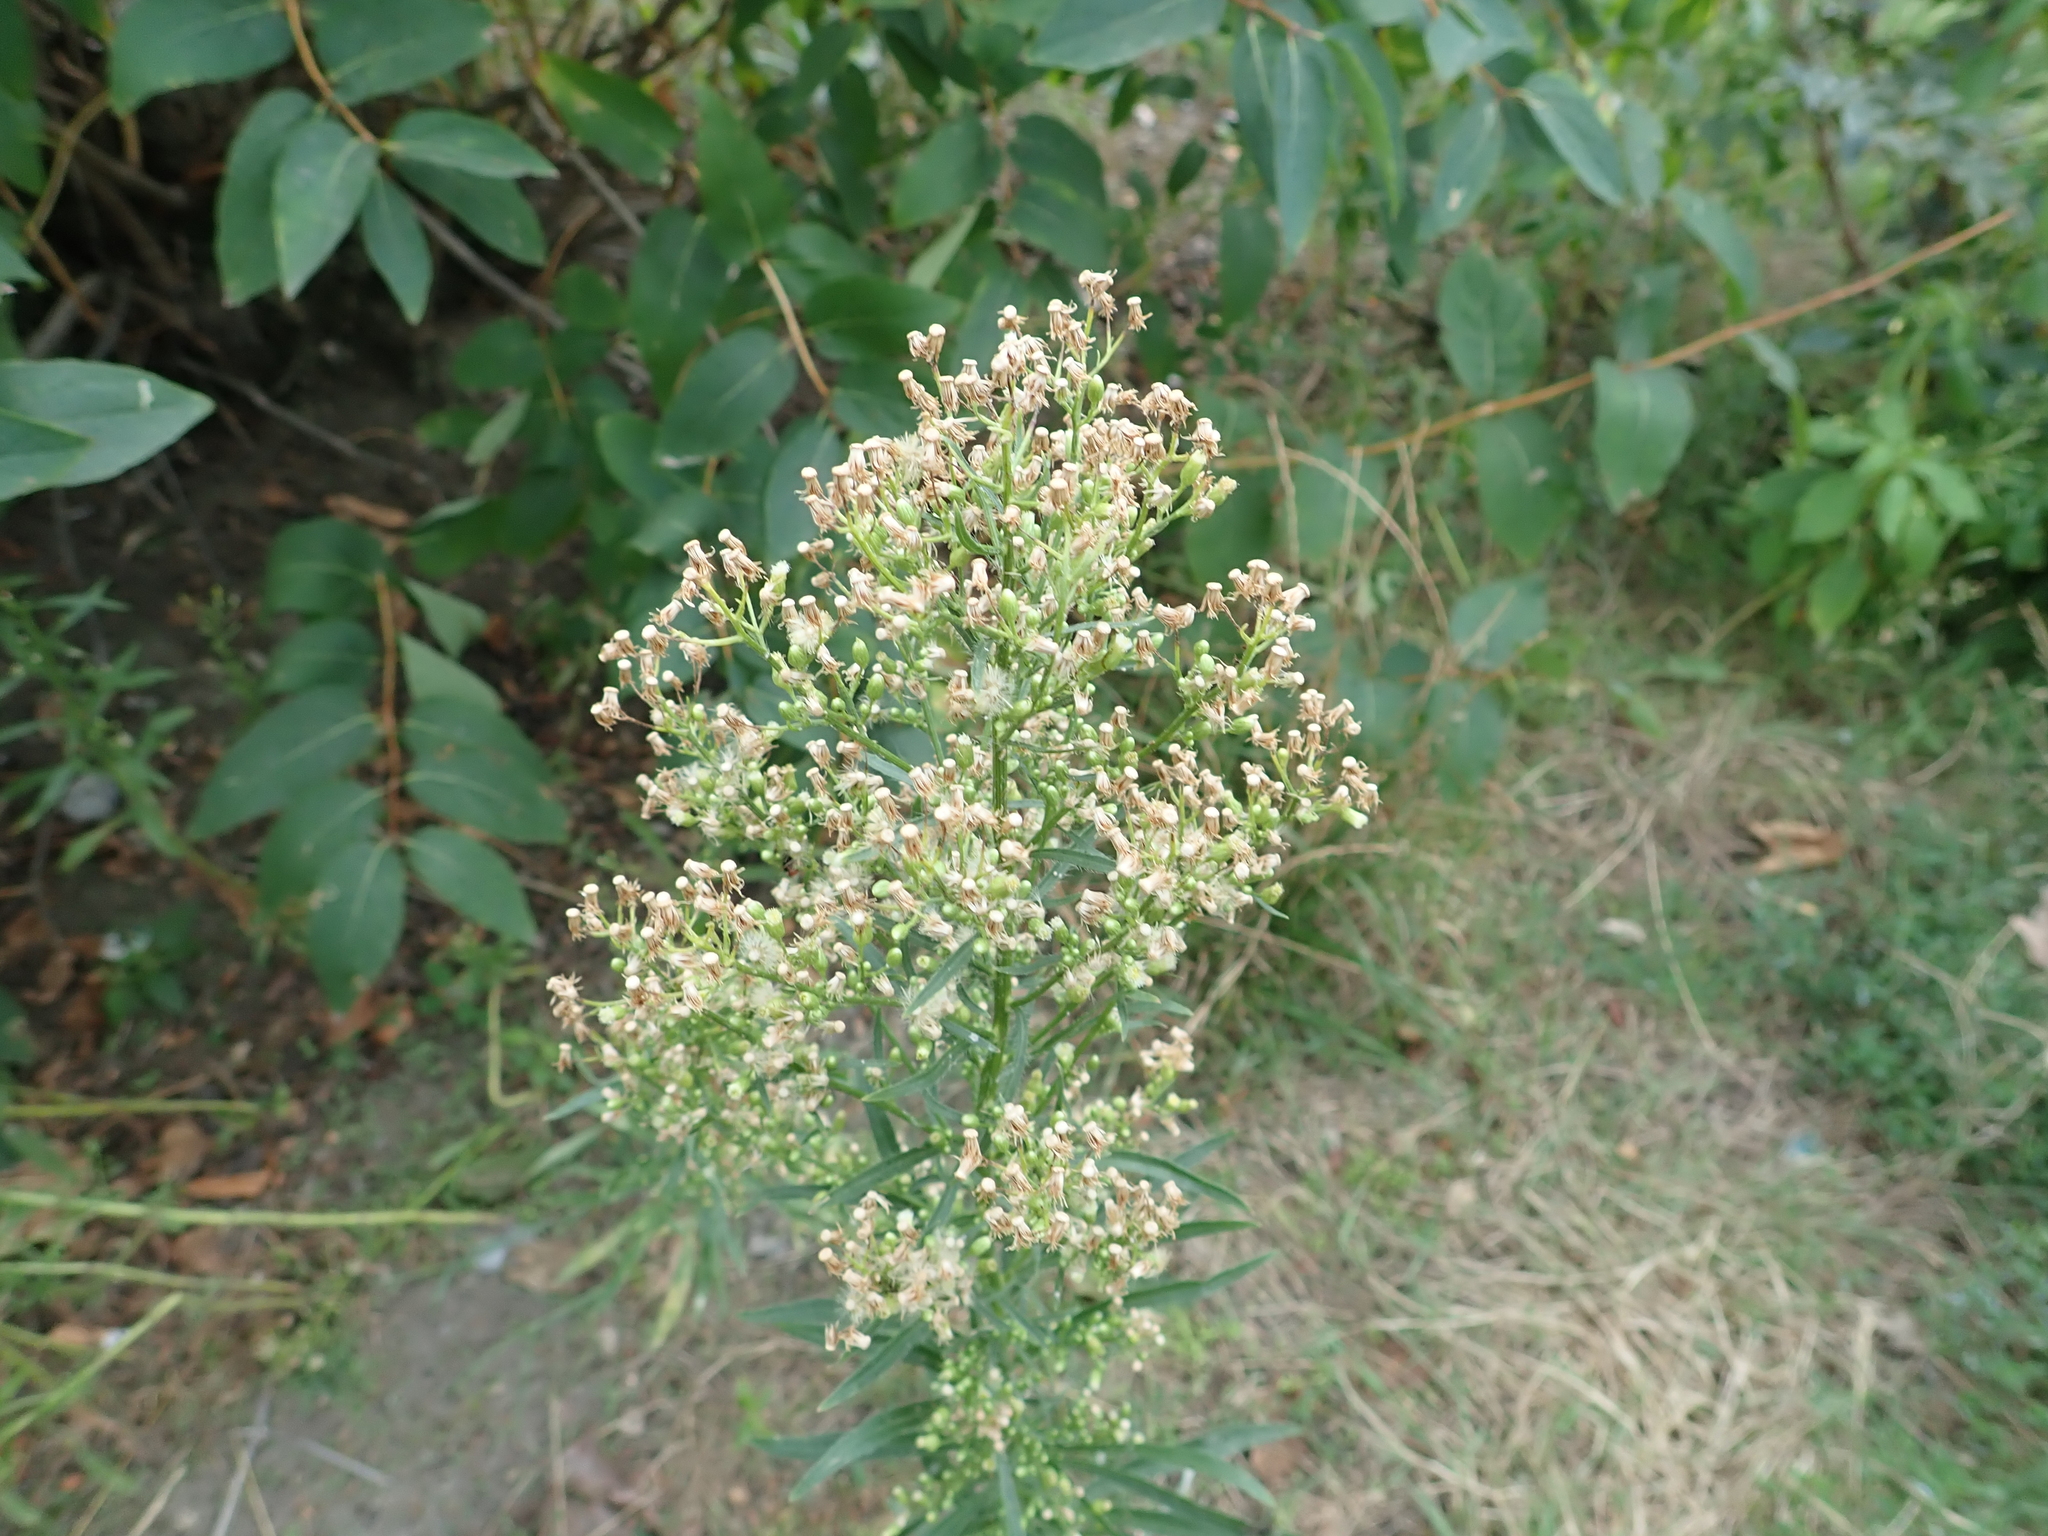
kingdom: Plantae
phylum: Tracheophyta
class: Magnoliopsida
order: Asterales
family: Asteraceae
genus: Erigeron
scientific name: Erigeron canadensis
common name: Canadian fleabane
